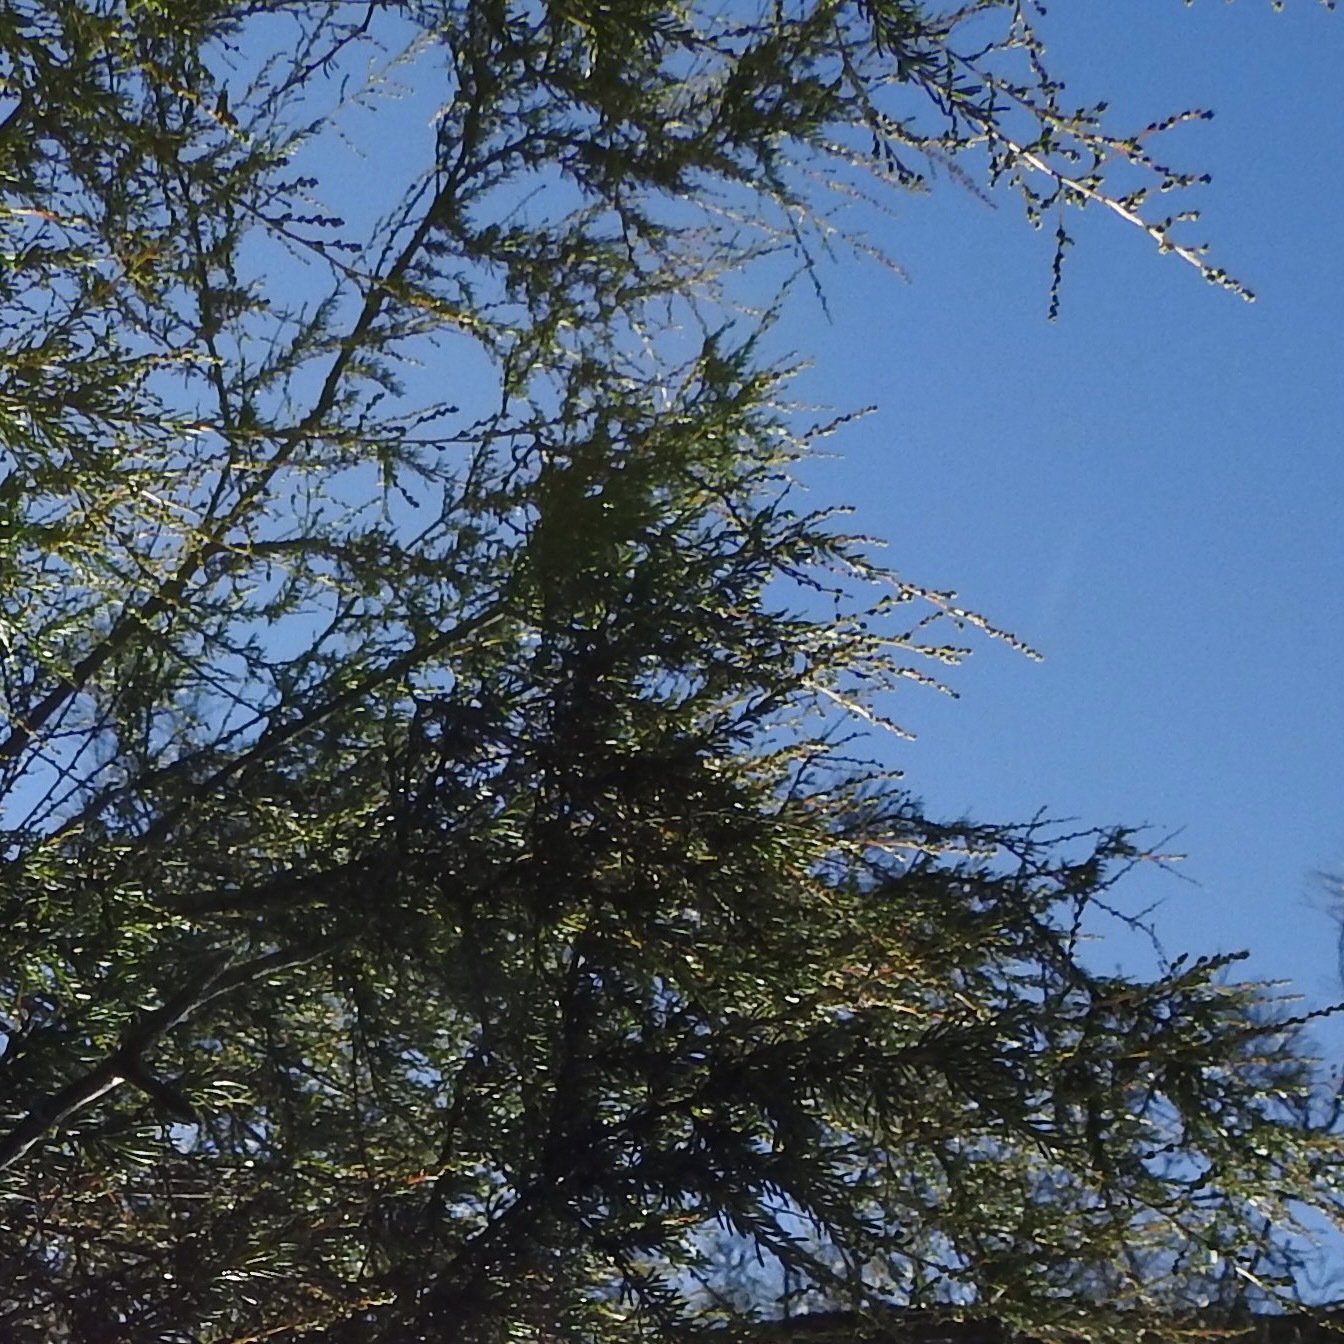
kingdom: Plantae
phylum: Tracheophyta
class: Magnoliopsida
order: Rosales
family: Rosaceae
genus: Adenostoma
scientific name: Adenostoma fasciculatum
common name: Chamise
